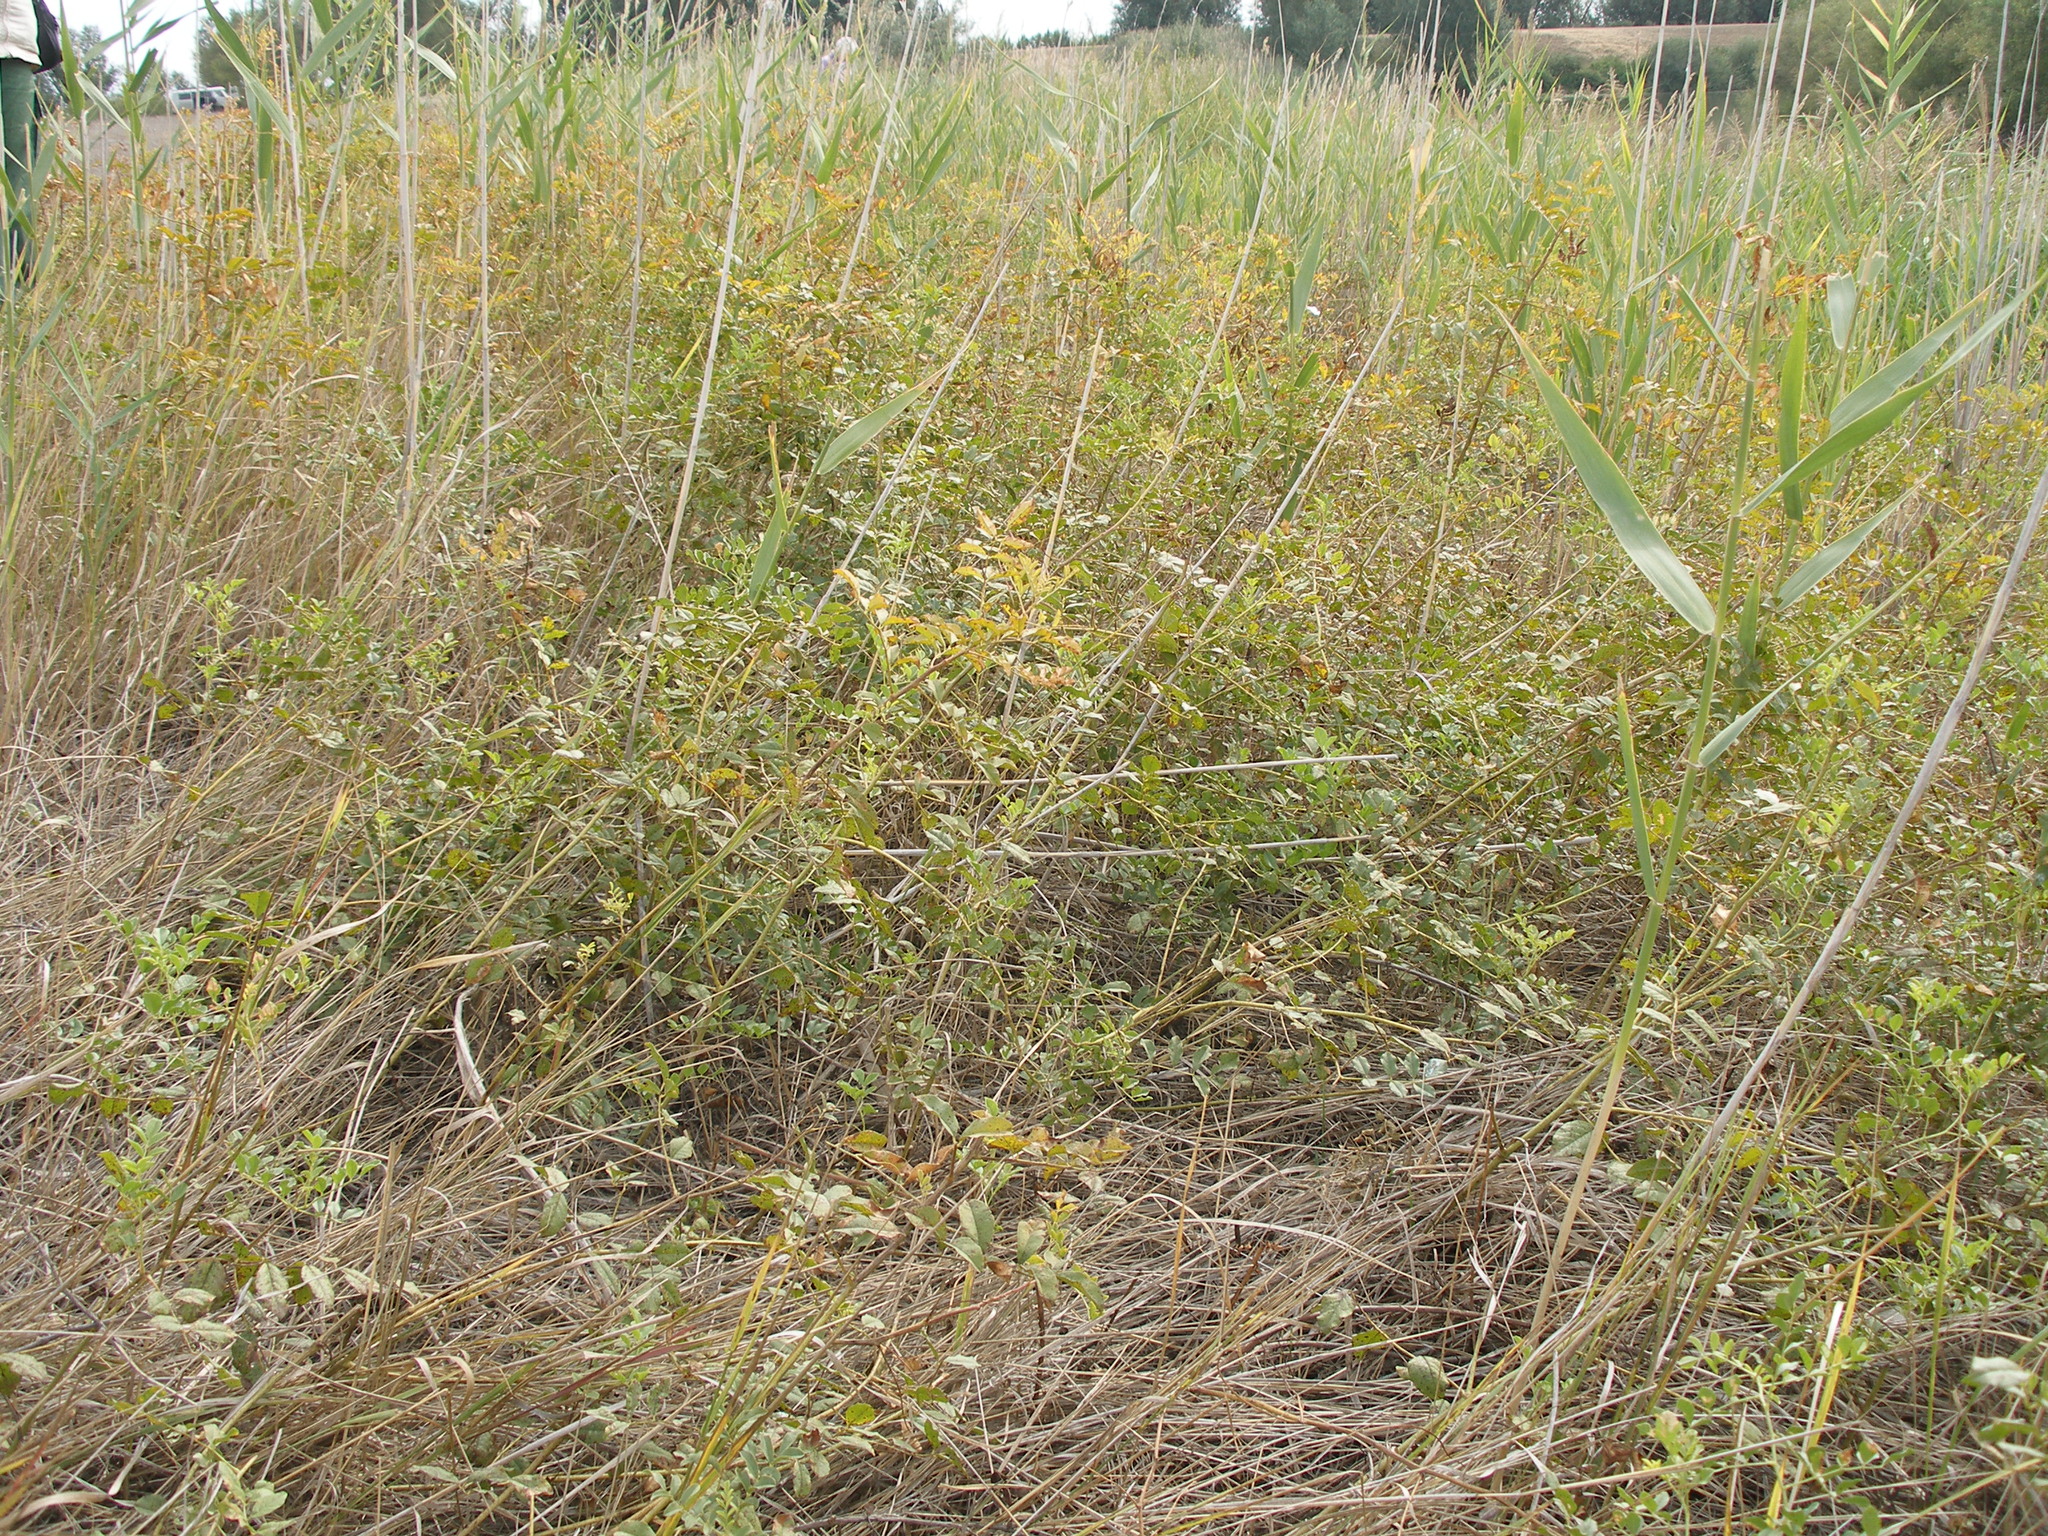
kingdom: Plantae
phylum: Tracheophyta
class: Magnoliopsida
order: Fabales
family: Fabaceae
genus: Glycyrrhiza
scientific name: Glycyrrhiza glabra
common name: Liquorice
